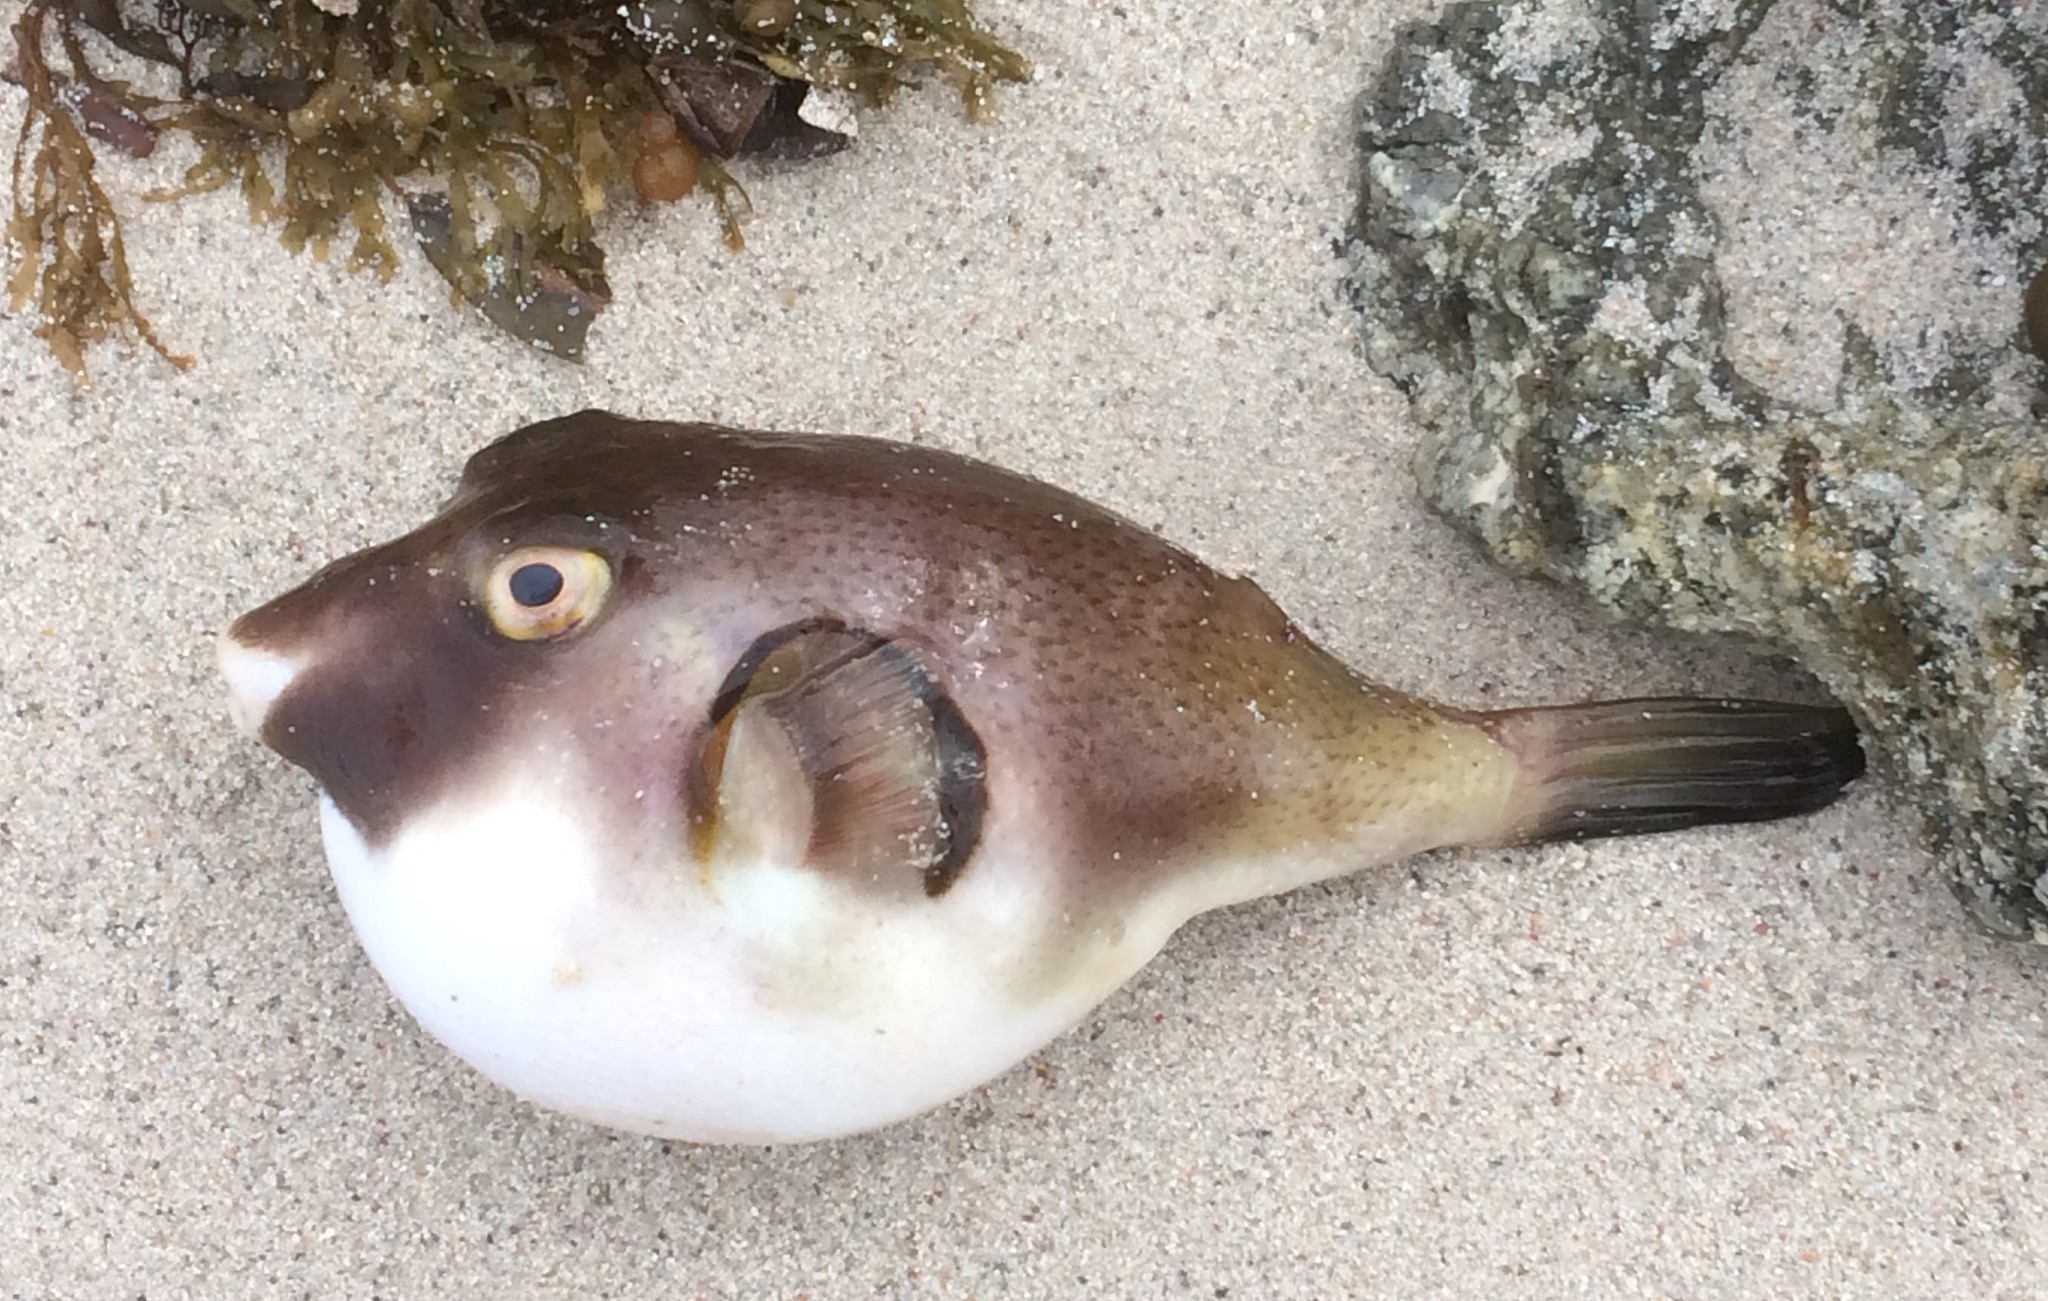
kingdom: Animalia
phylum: Chordata
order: Tetraodontiformes
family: Tetraodontidae
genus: Omegophora
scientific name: Omegophora armilla
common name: Ringed pufferfish
